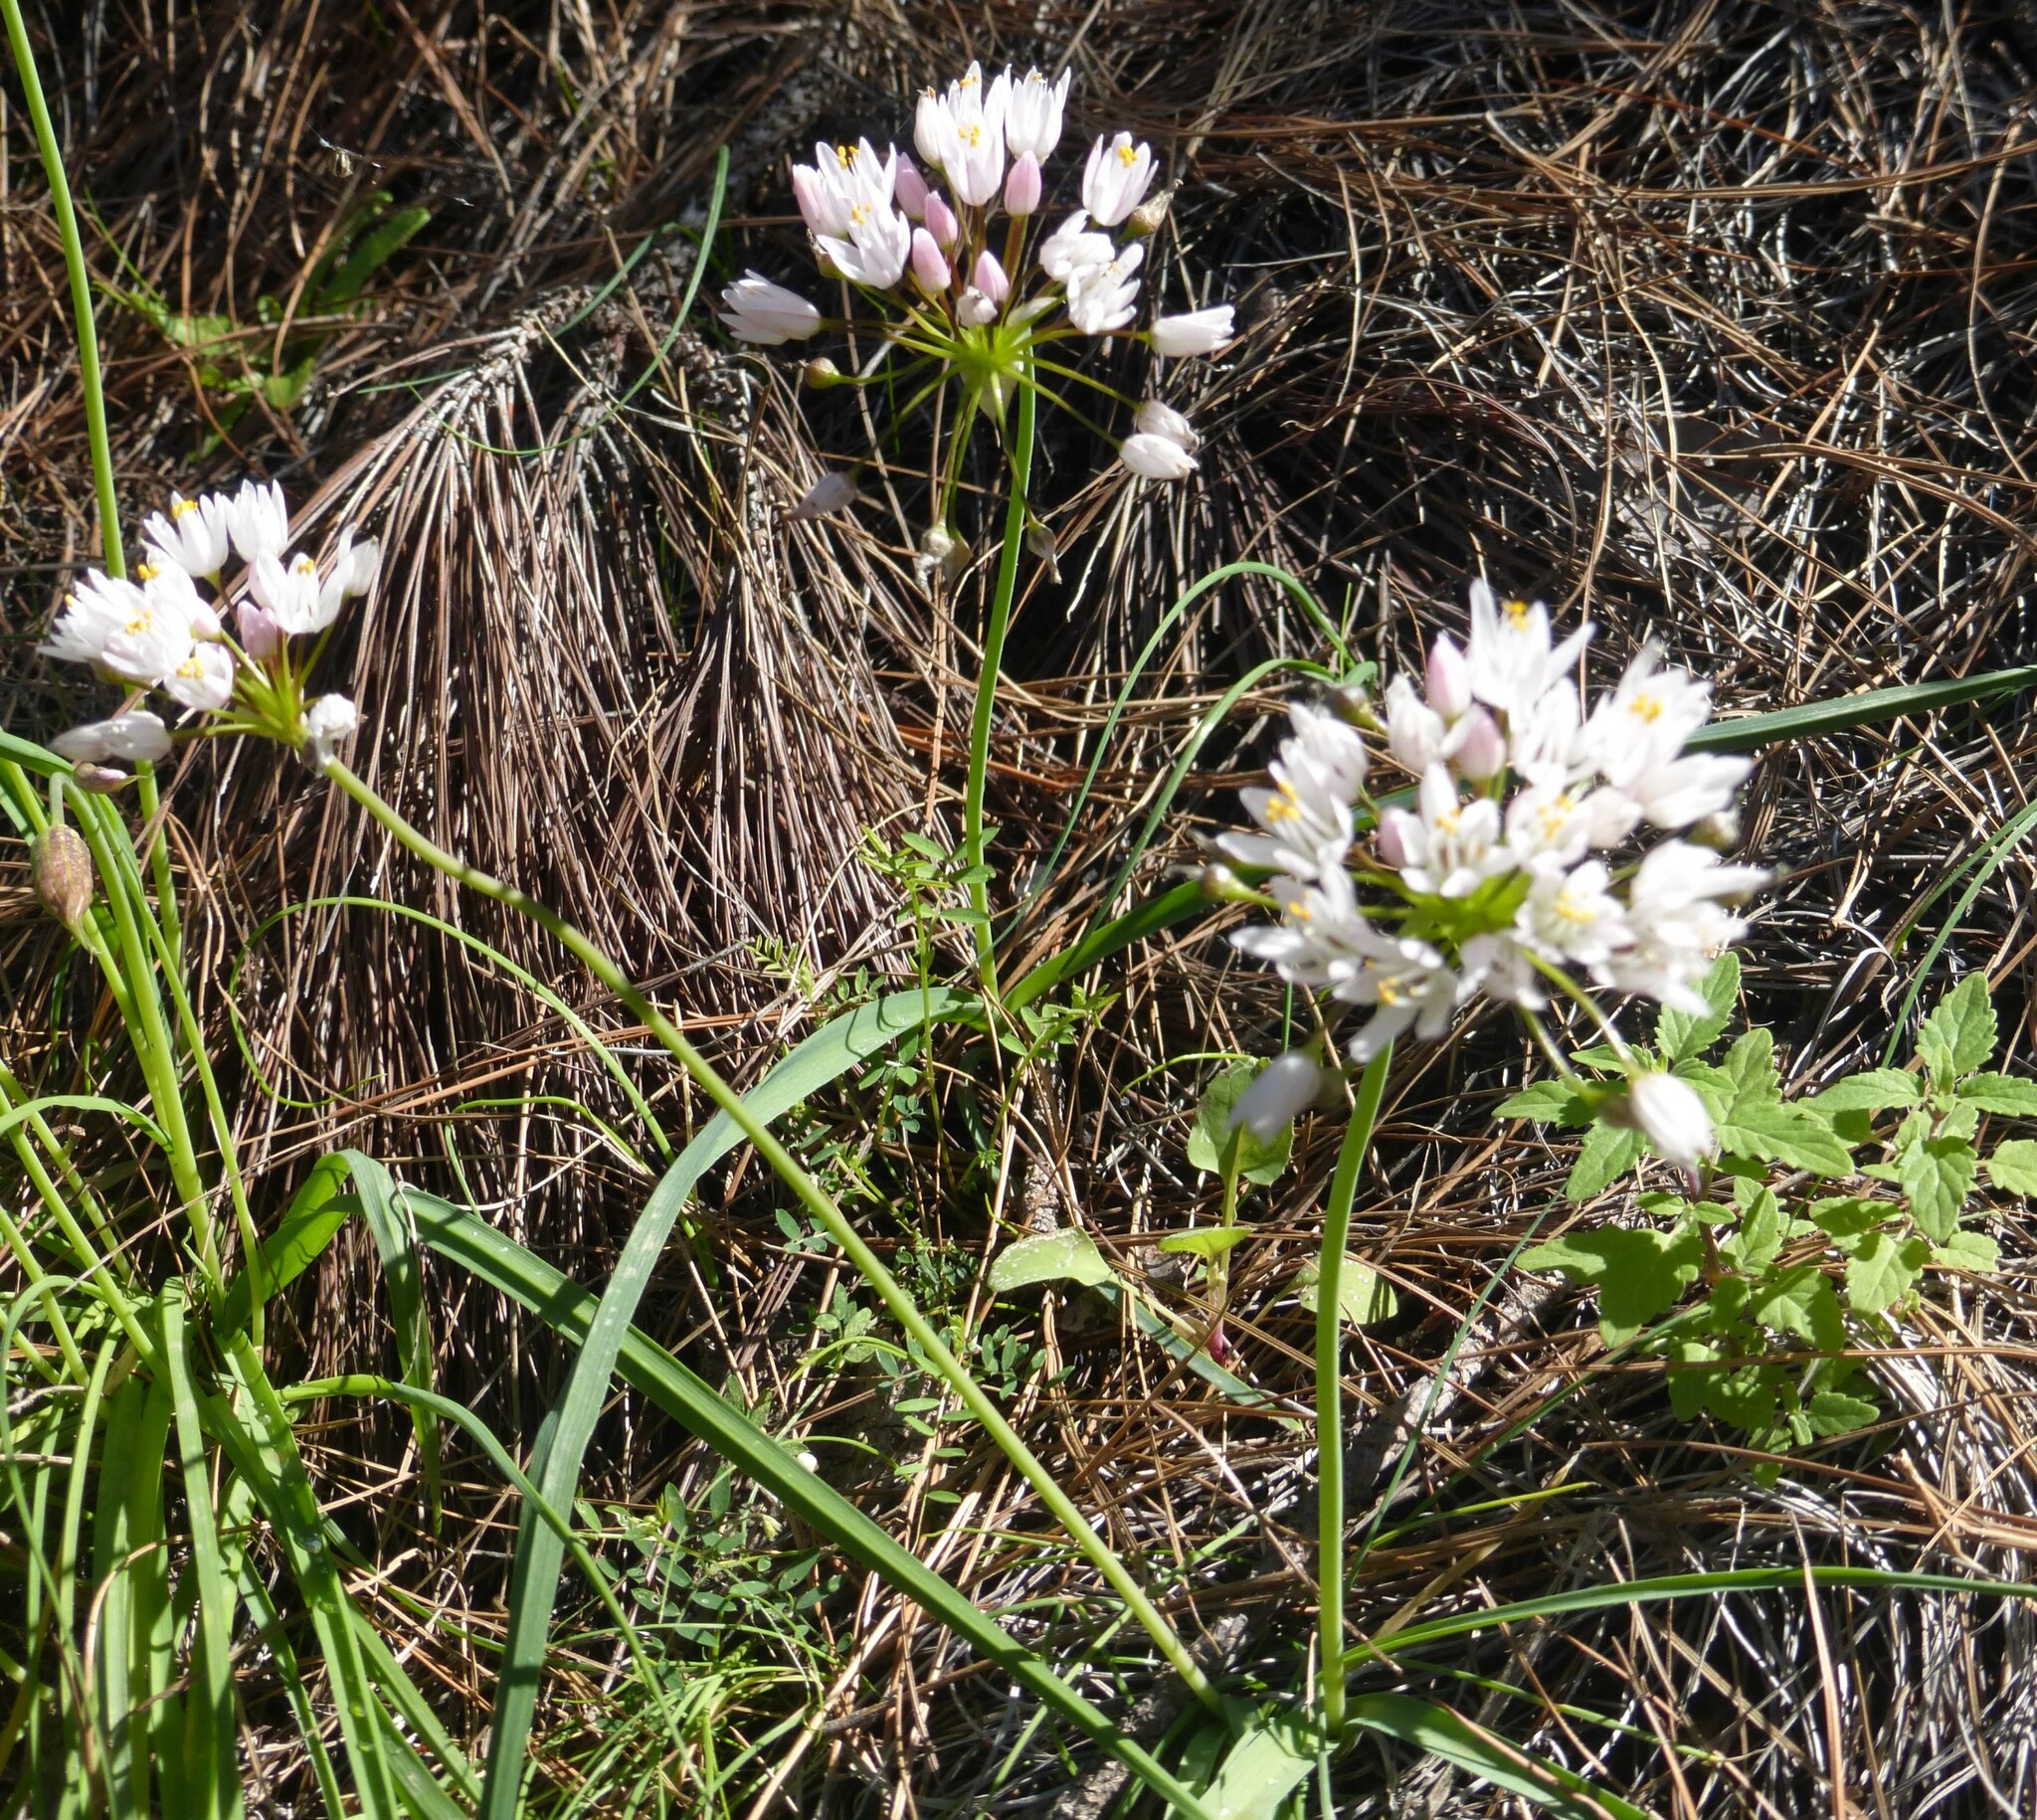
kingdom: Plantae
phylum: Tracheophyta
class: Liliopsida
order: Asparagales
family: Amaryllidaceae
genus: Allium
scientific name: Allium canariense
